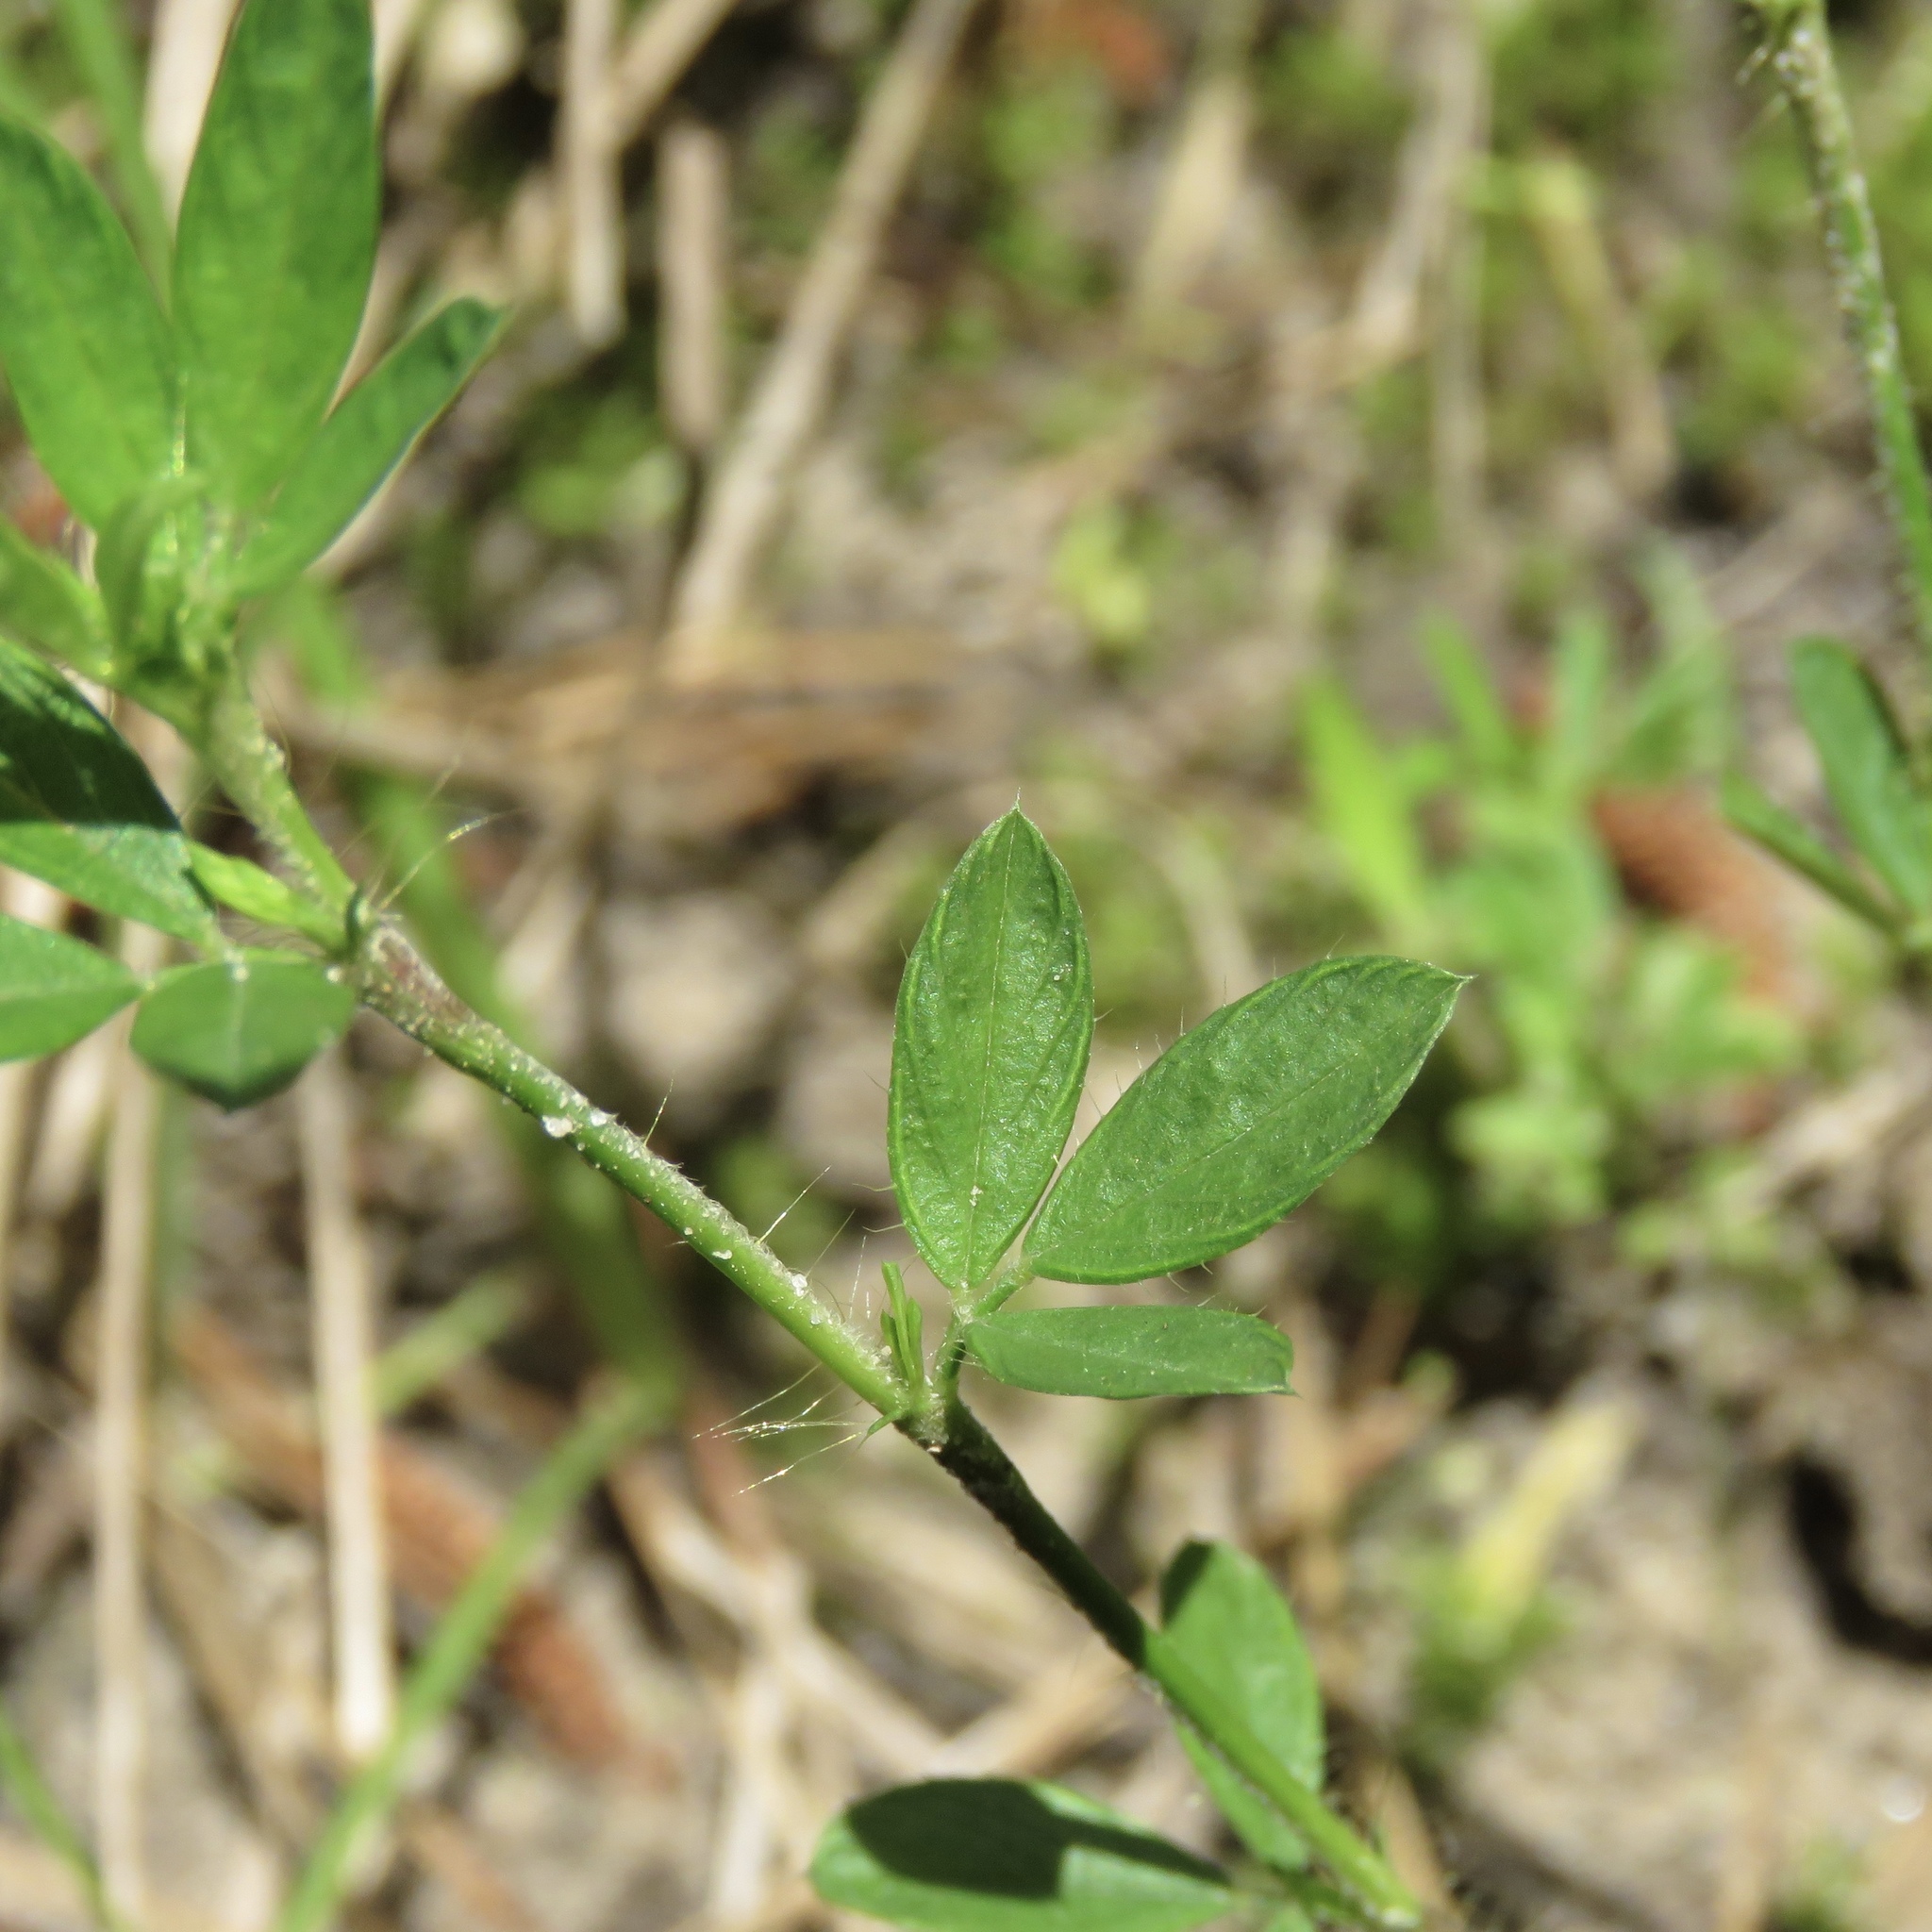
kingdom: Plantae
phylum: Tracheophyta
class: Magnoliopsida
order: Fabales
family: Fabaceae
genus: Stylosanthes
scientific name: Stylosanthes biflora
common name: Two-flower pencil-flower
